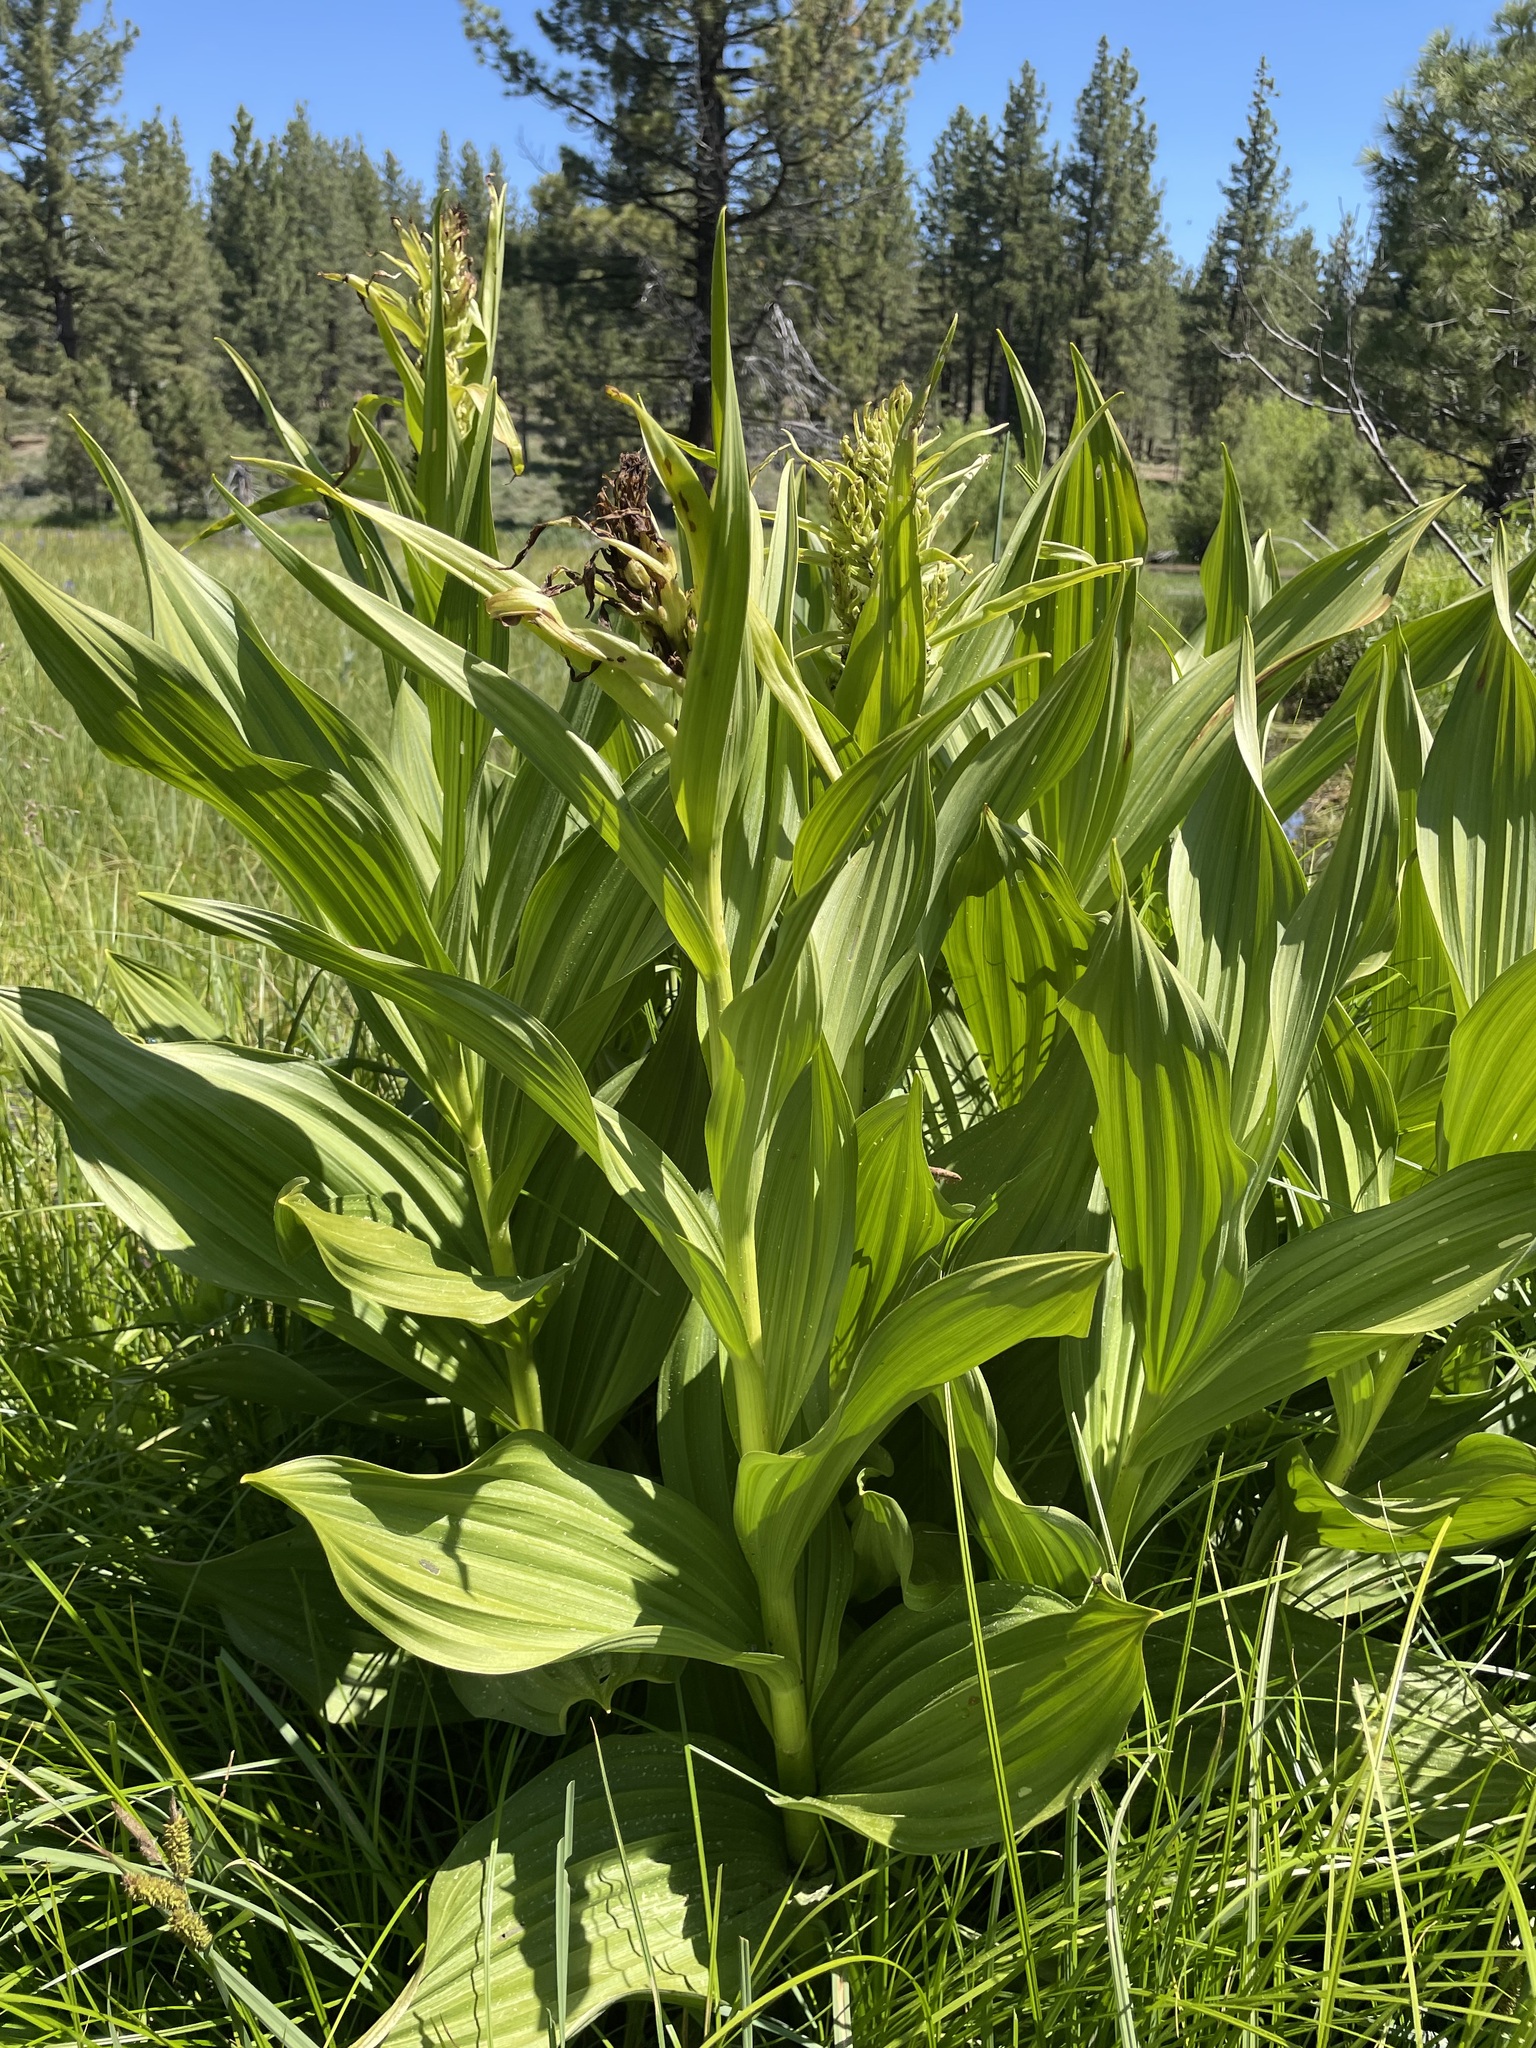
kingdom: Plantae
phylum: Tracheophyta
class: Liliopsida
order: Liliales
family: Melanthiaceae
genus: Veratrum
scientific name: Veratrum californicum
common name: California veratrum
